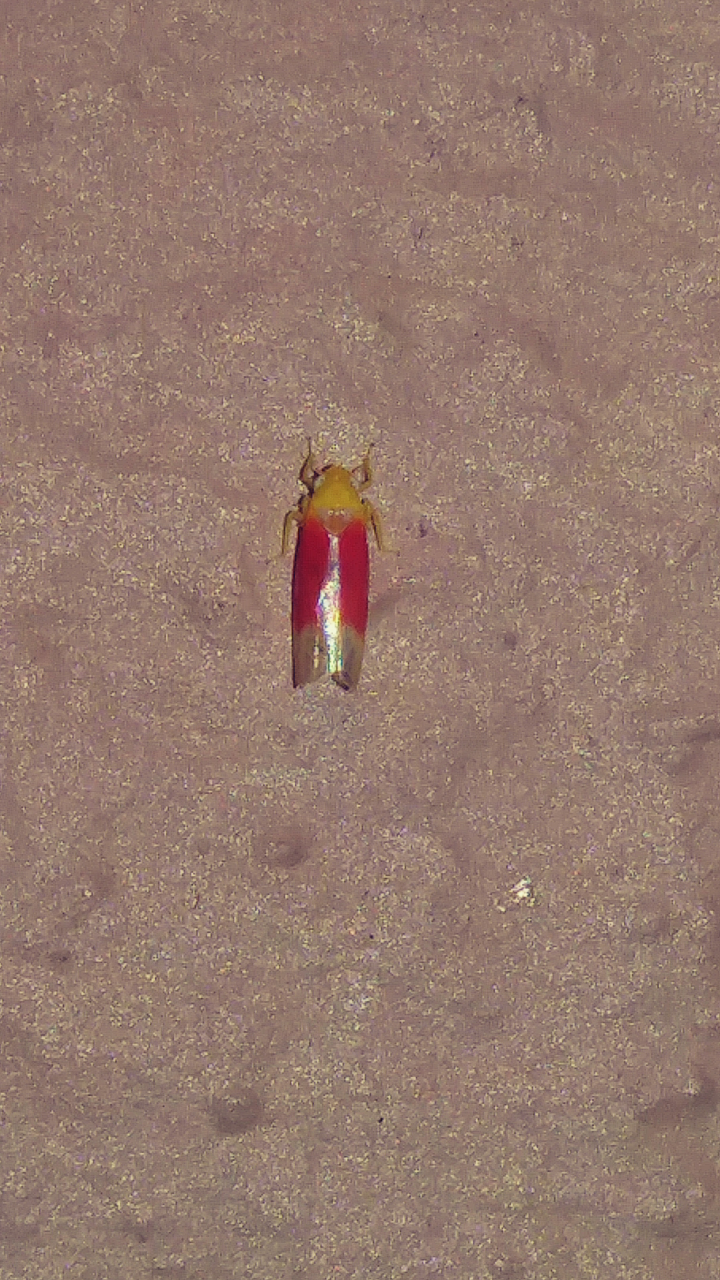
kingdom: Animalia
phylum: Arthropoda
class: Insecta
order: Hemiptera
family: Cicadellidae
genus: Ossiannilssonola
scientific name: Ossiannilssonola tunicarubra
